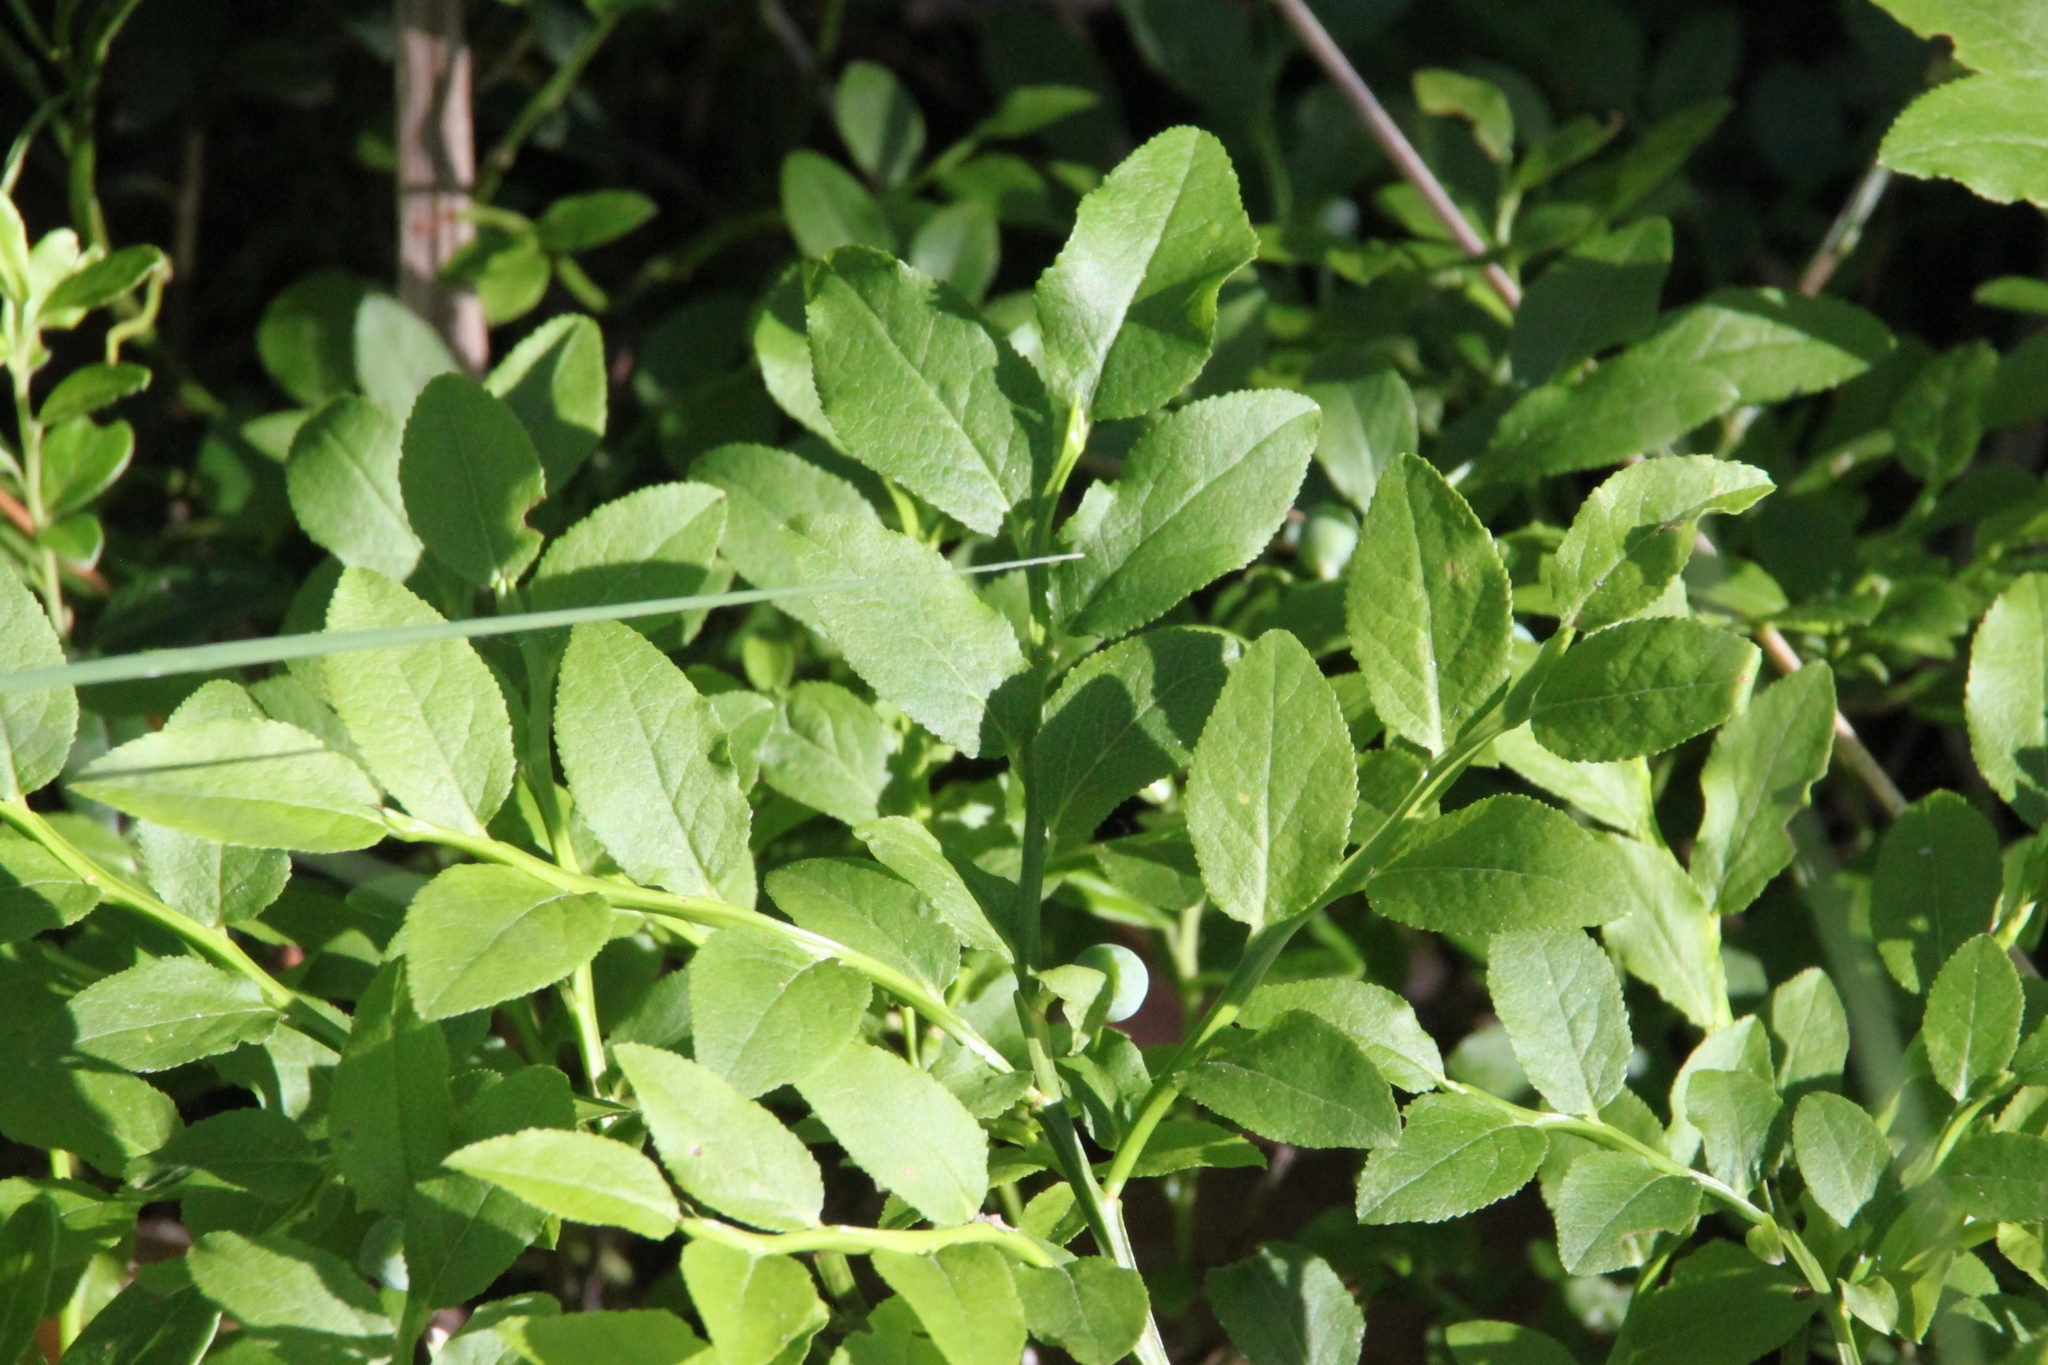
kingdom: Plantae
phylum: Tracheophyta
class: Magnoliopsida
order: Ericales
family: Ericaceae
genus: Vaccinium
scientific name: Vaccinium myrtillus
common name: Bilberry
